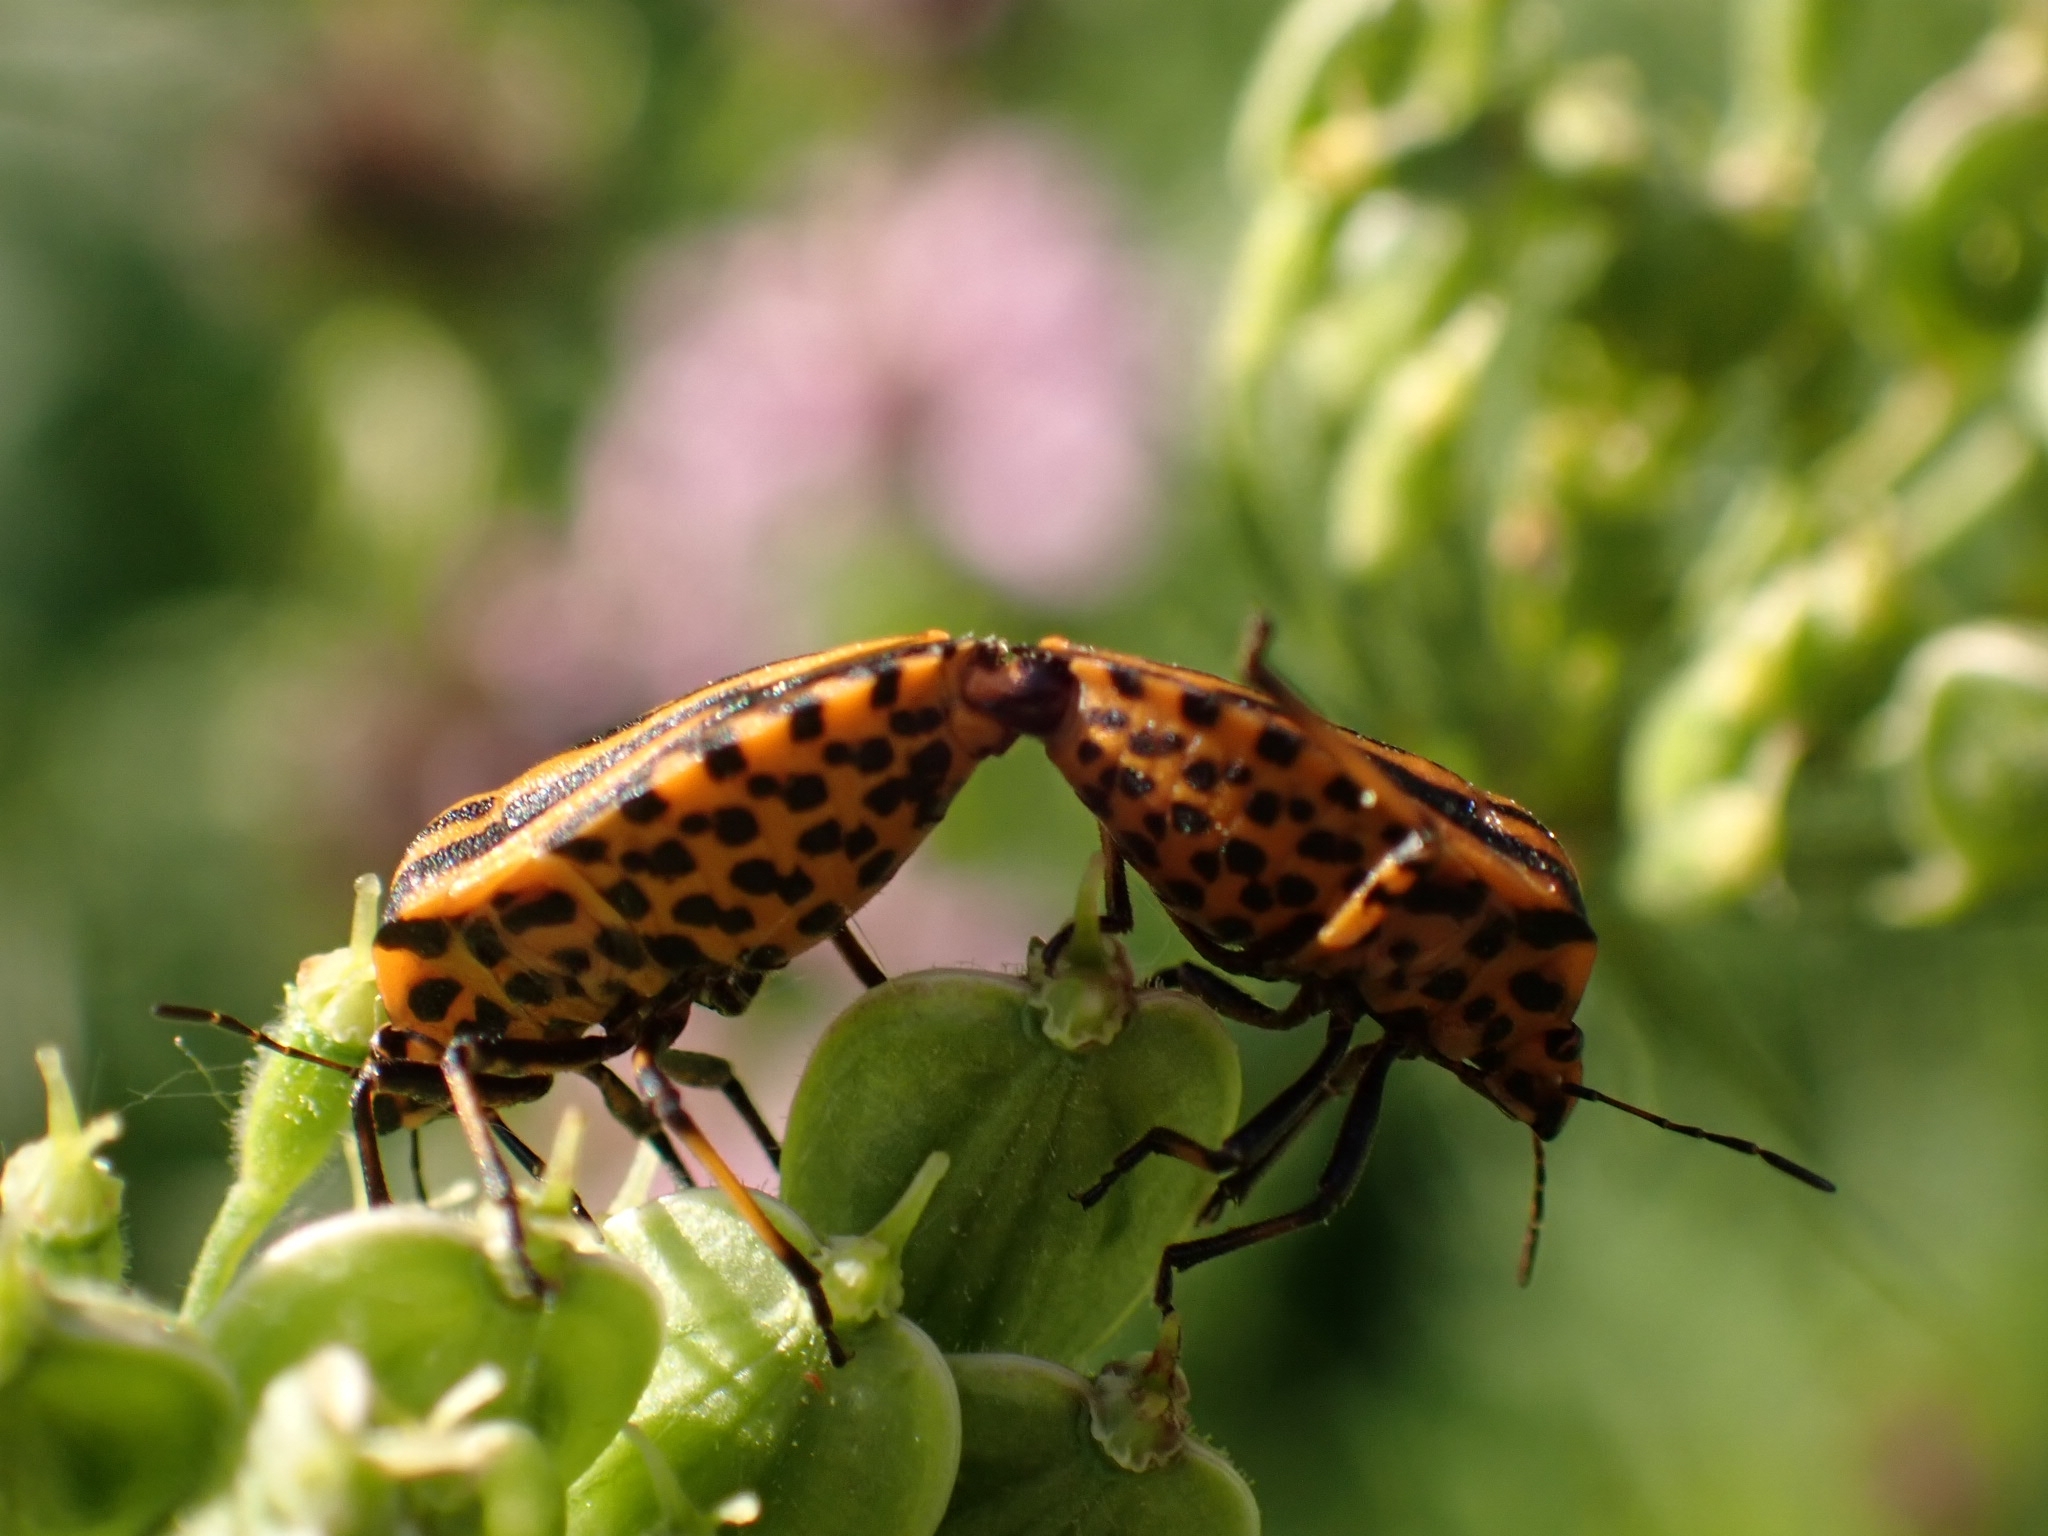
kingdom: Animalia
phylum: Arthropoda
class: Insecta
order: Hemiptera
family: Pentatomidae
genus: Graphosoma
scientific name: Graphosoma italicum
